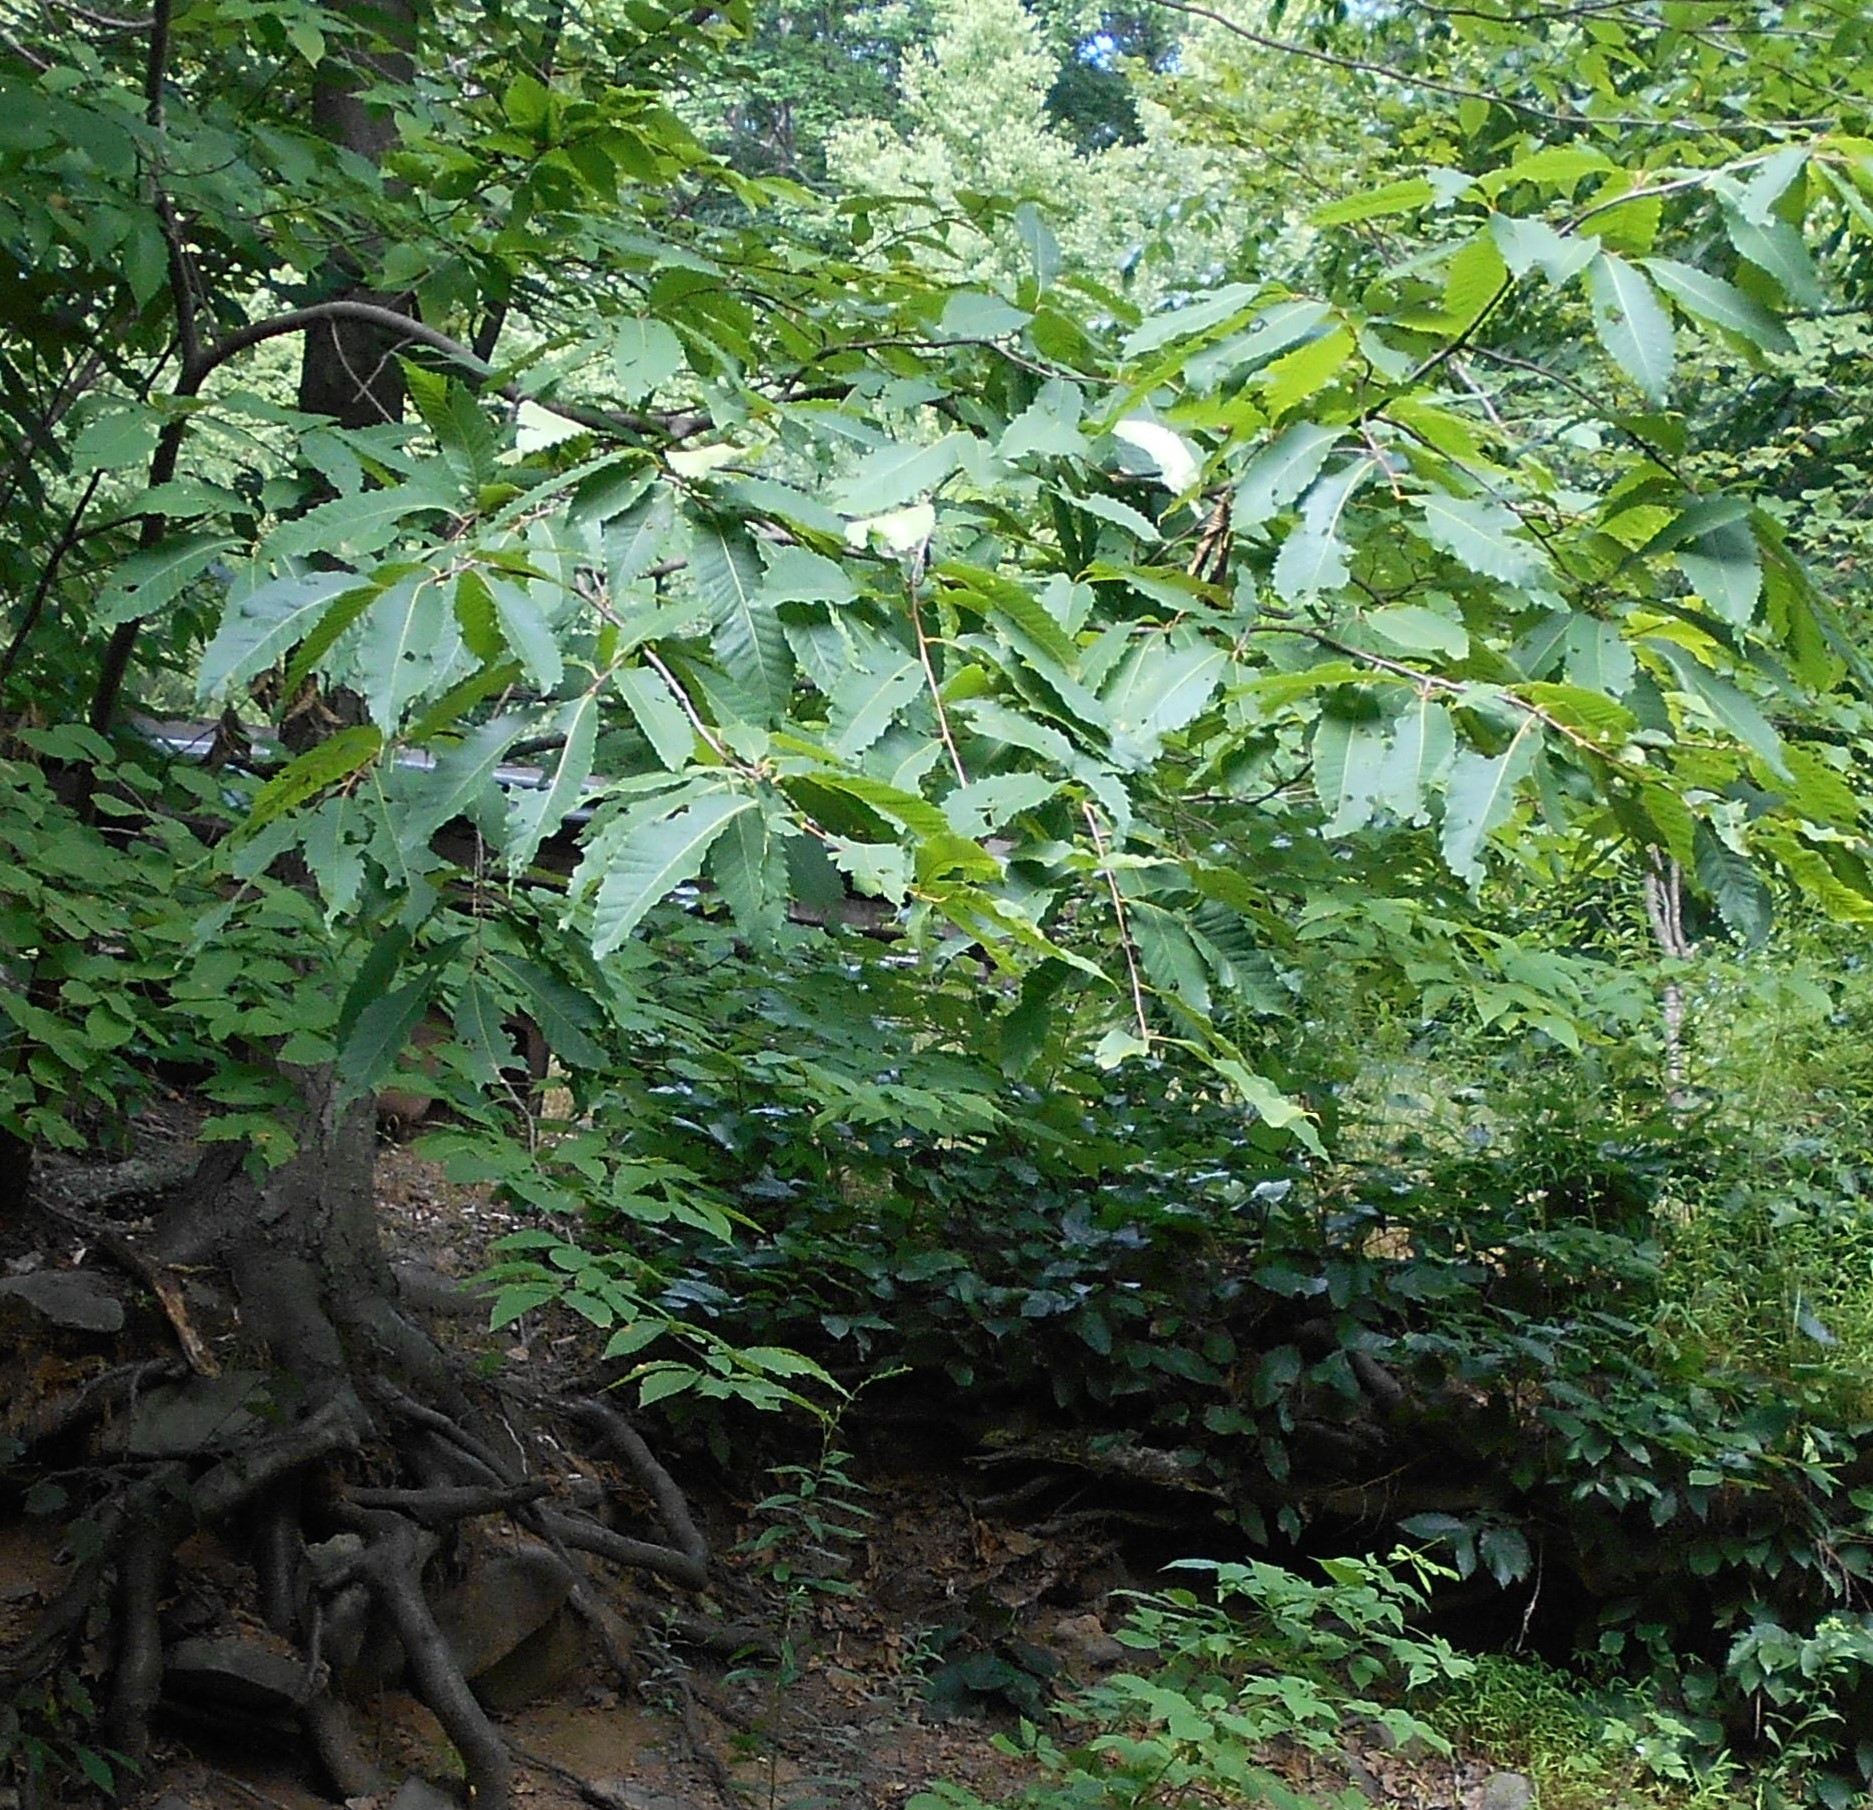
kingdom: Plantae
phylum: Tracheophyta
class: Magnoliopsida
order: Fagales
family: Fagaceae
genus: Castanea
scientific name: Castanea dentata
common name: American chestnut
